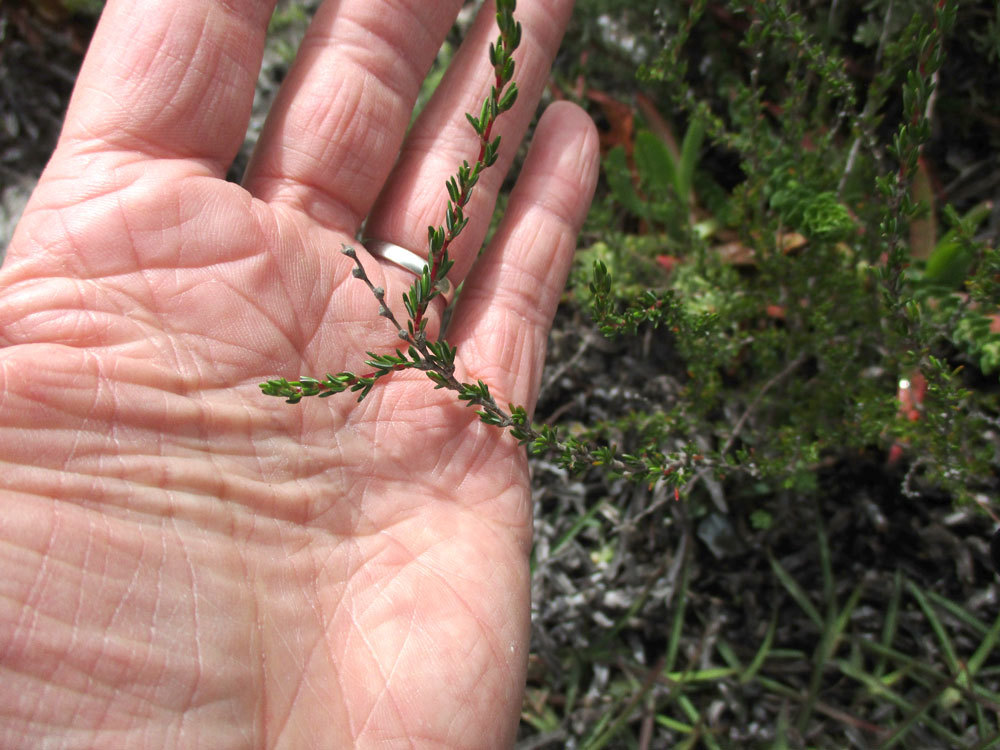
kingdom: Plantae
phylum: Tracheophyta
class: Magnoliopsida
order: Rosales
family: Rosaceae
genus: Cliffortia
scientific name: Cliffortia ericifolia
